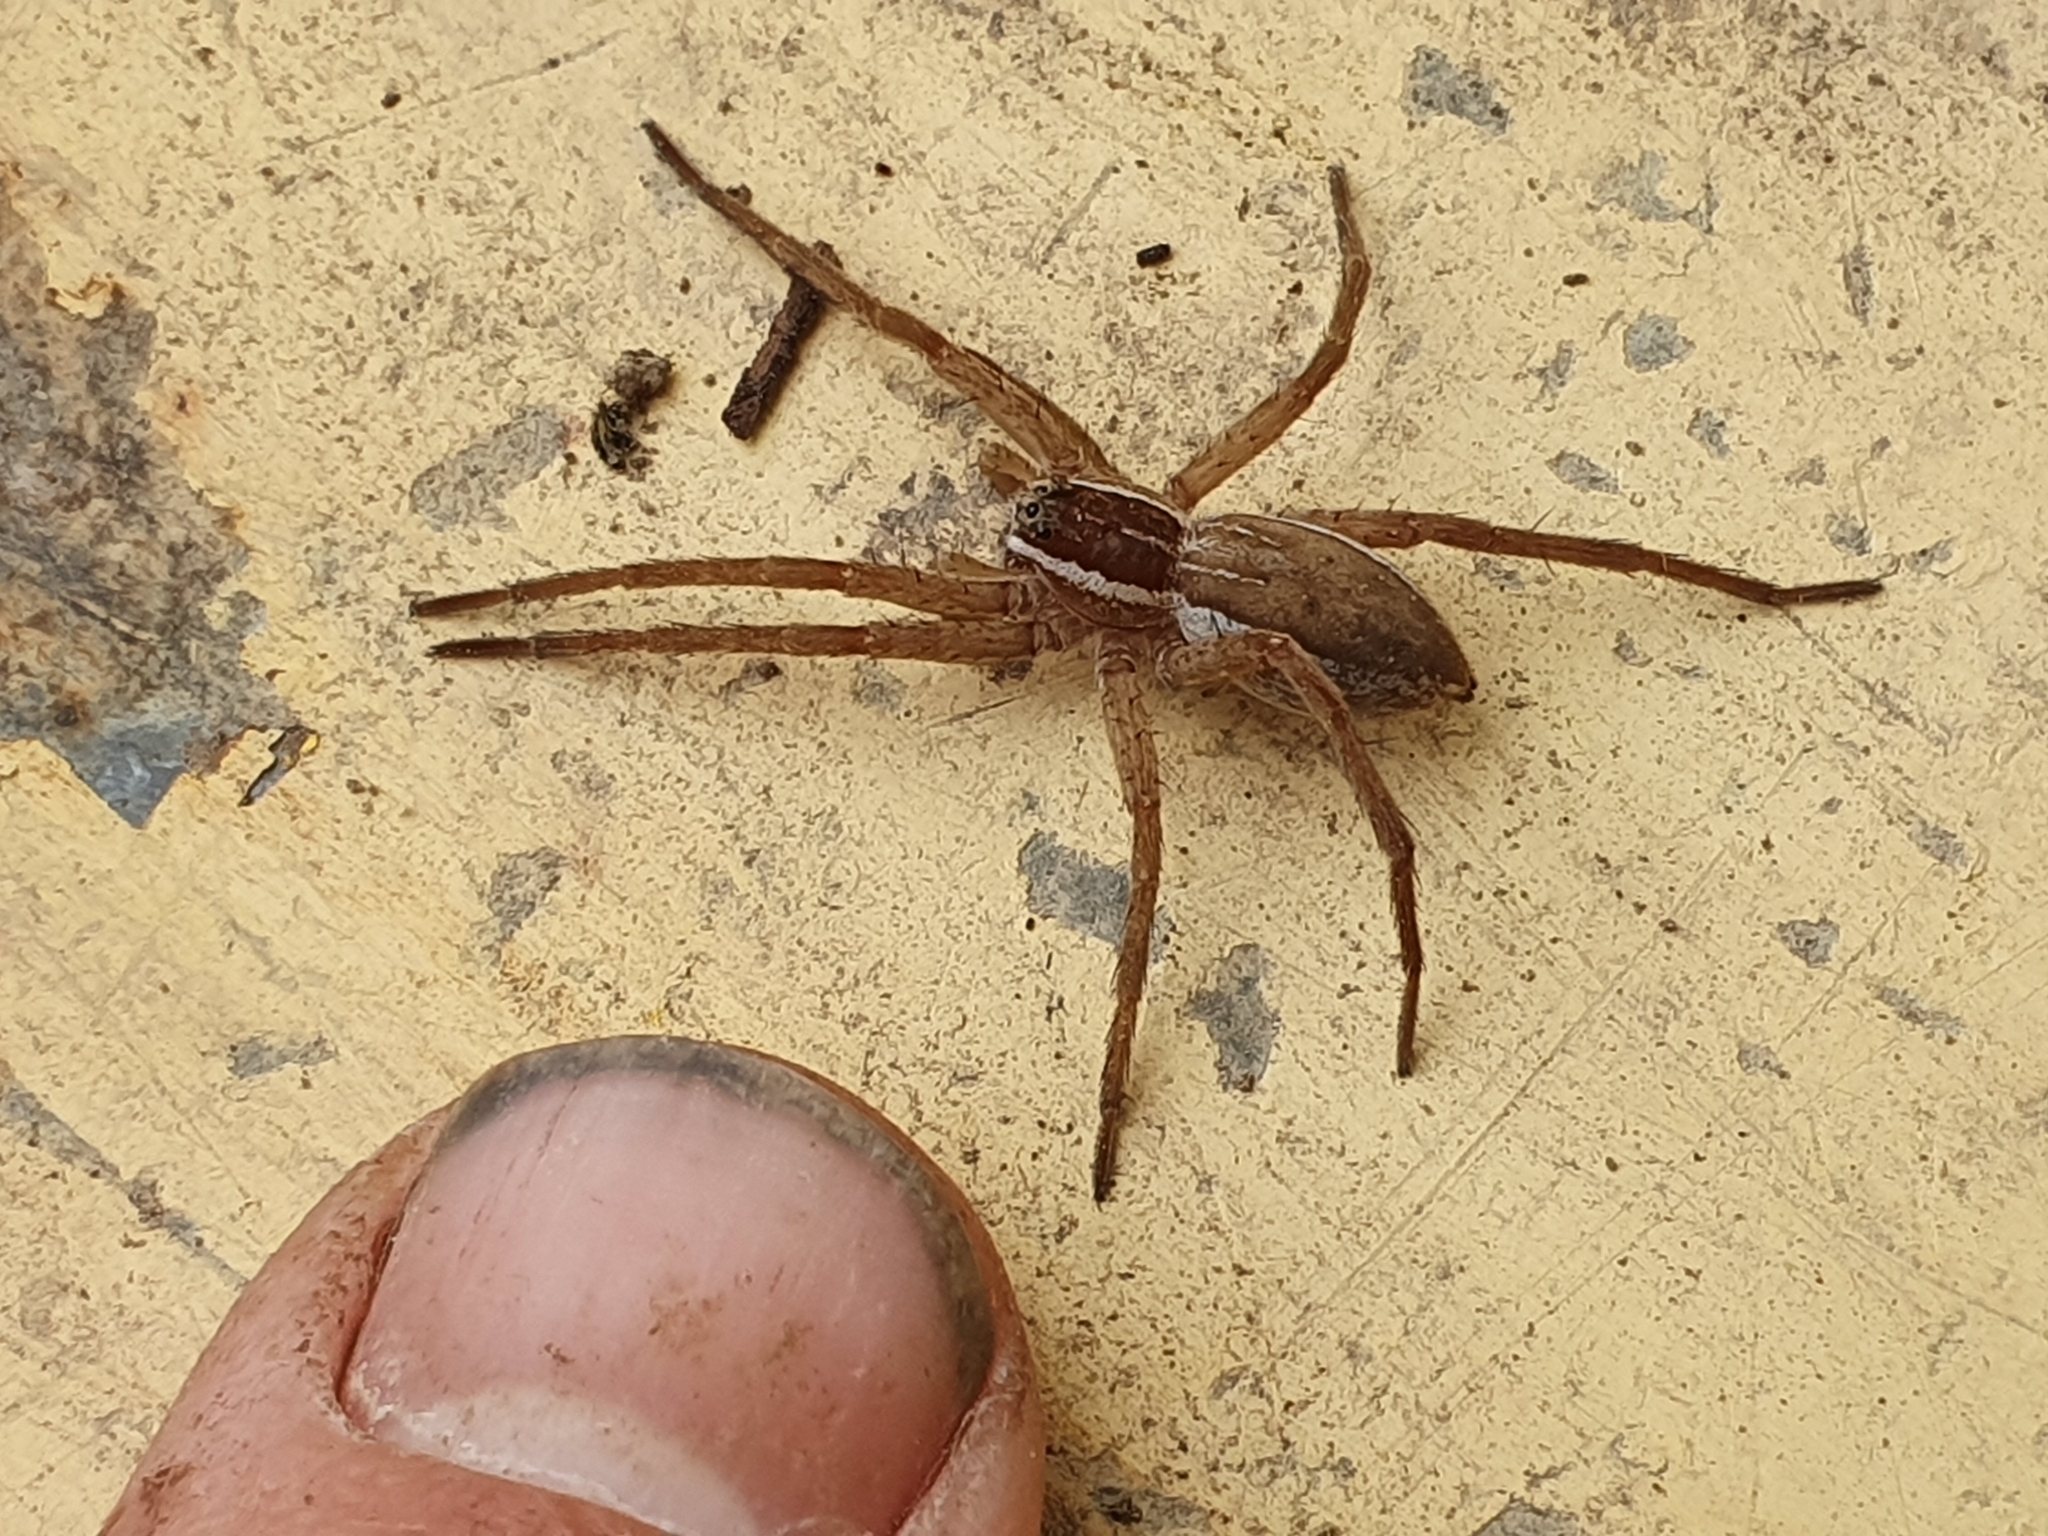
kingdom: Animalia
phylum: Arthropoda
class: Arachnida
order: Araneae
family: Pisauridae
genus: Dolomedes
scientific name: Dolomedes minor
